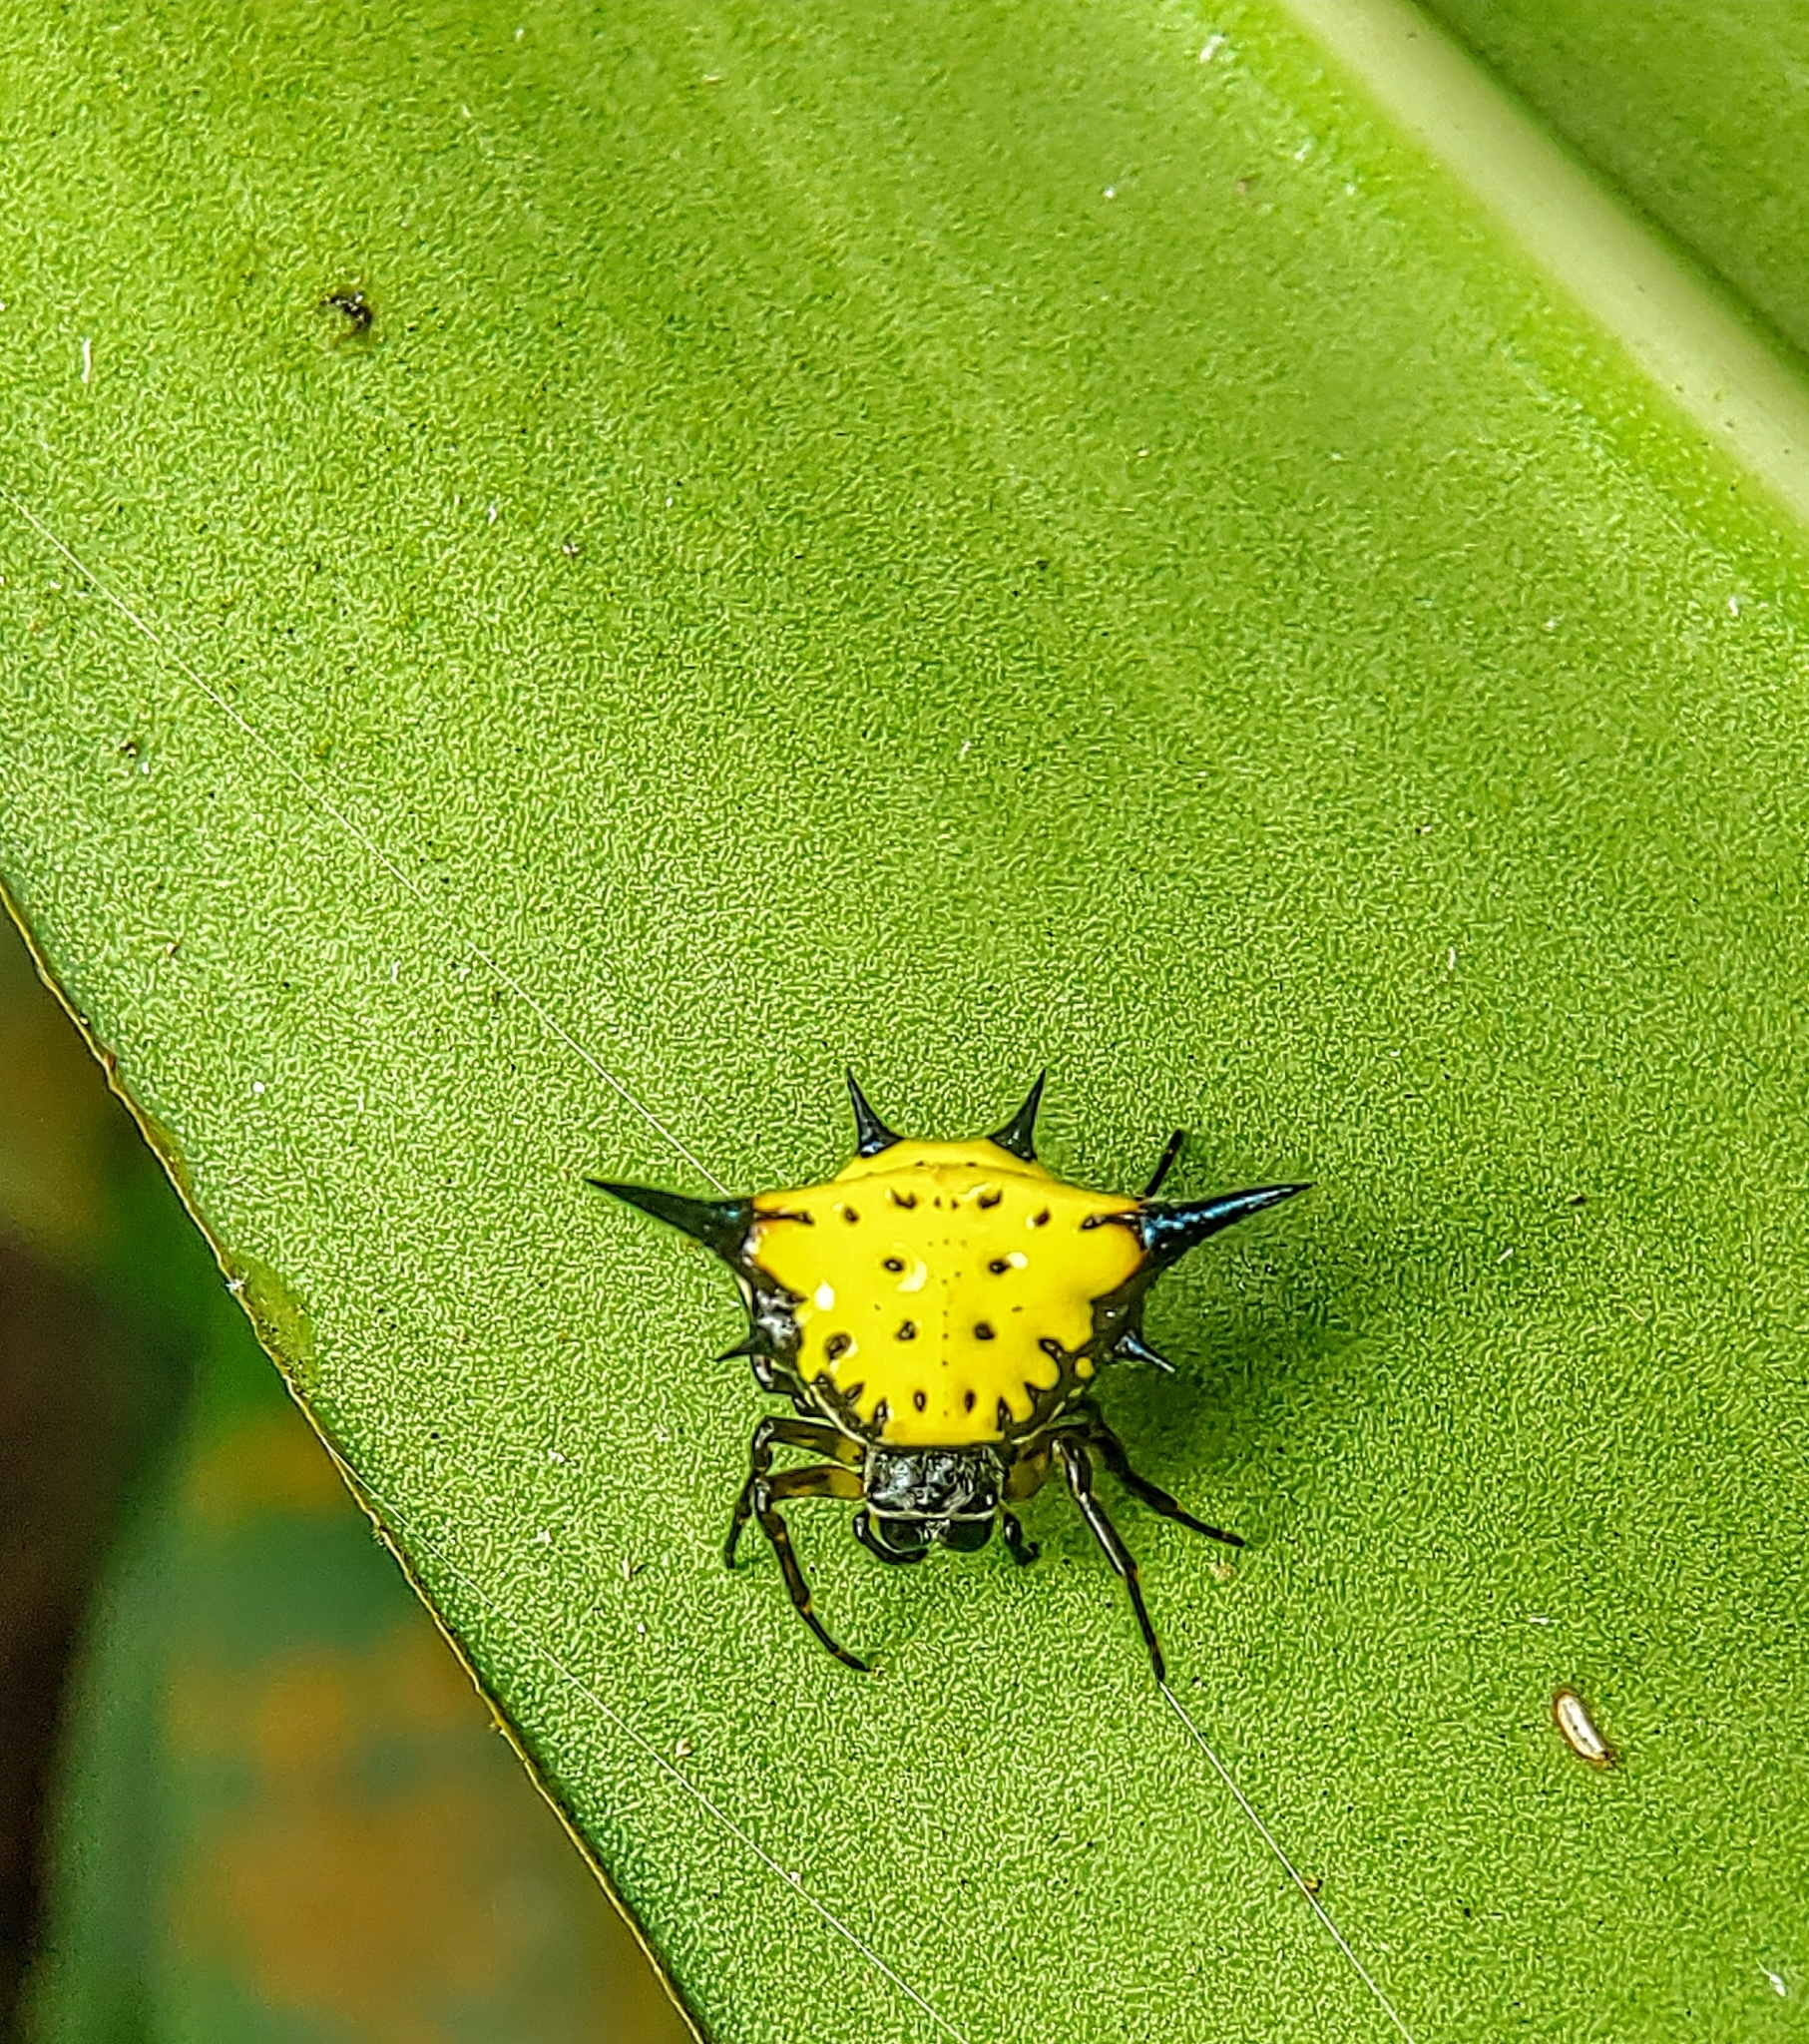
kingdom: Animalia
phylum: Arthropoda
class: Arachnida
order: Araneae
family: Araneidae
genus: Macracantha
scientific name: Macracantha hasselti
